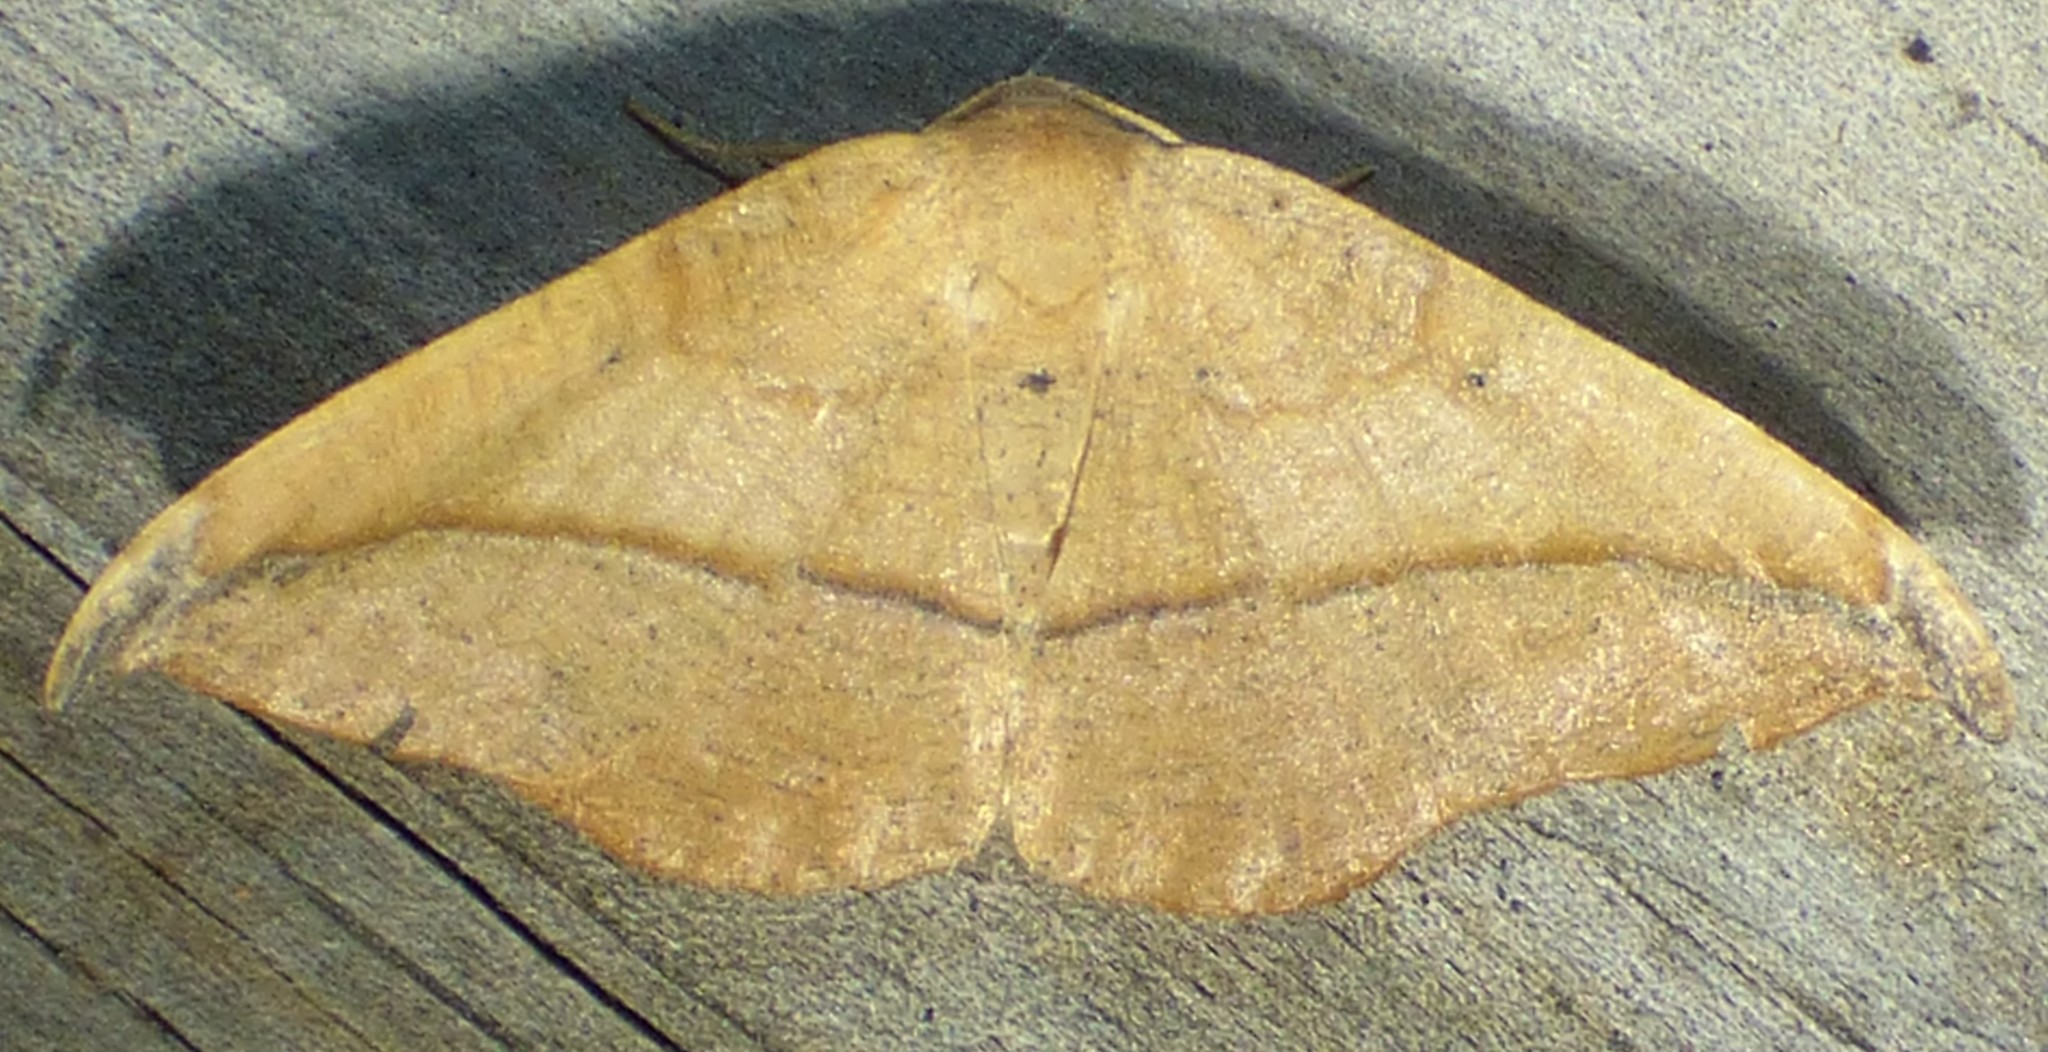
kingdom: Animalia
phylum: Arthropoda
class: Insecta
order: Lepidoptera
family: Geometridae
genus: Patalene
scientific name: Patalene olyzonaria
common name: Juniper geometer moth
